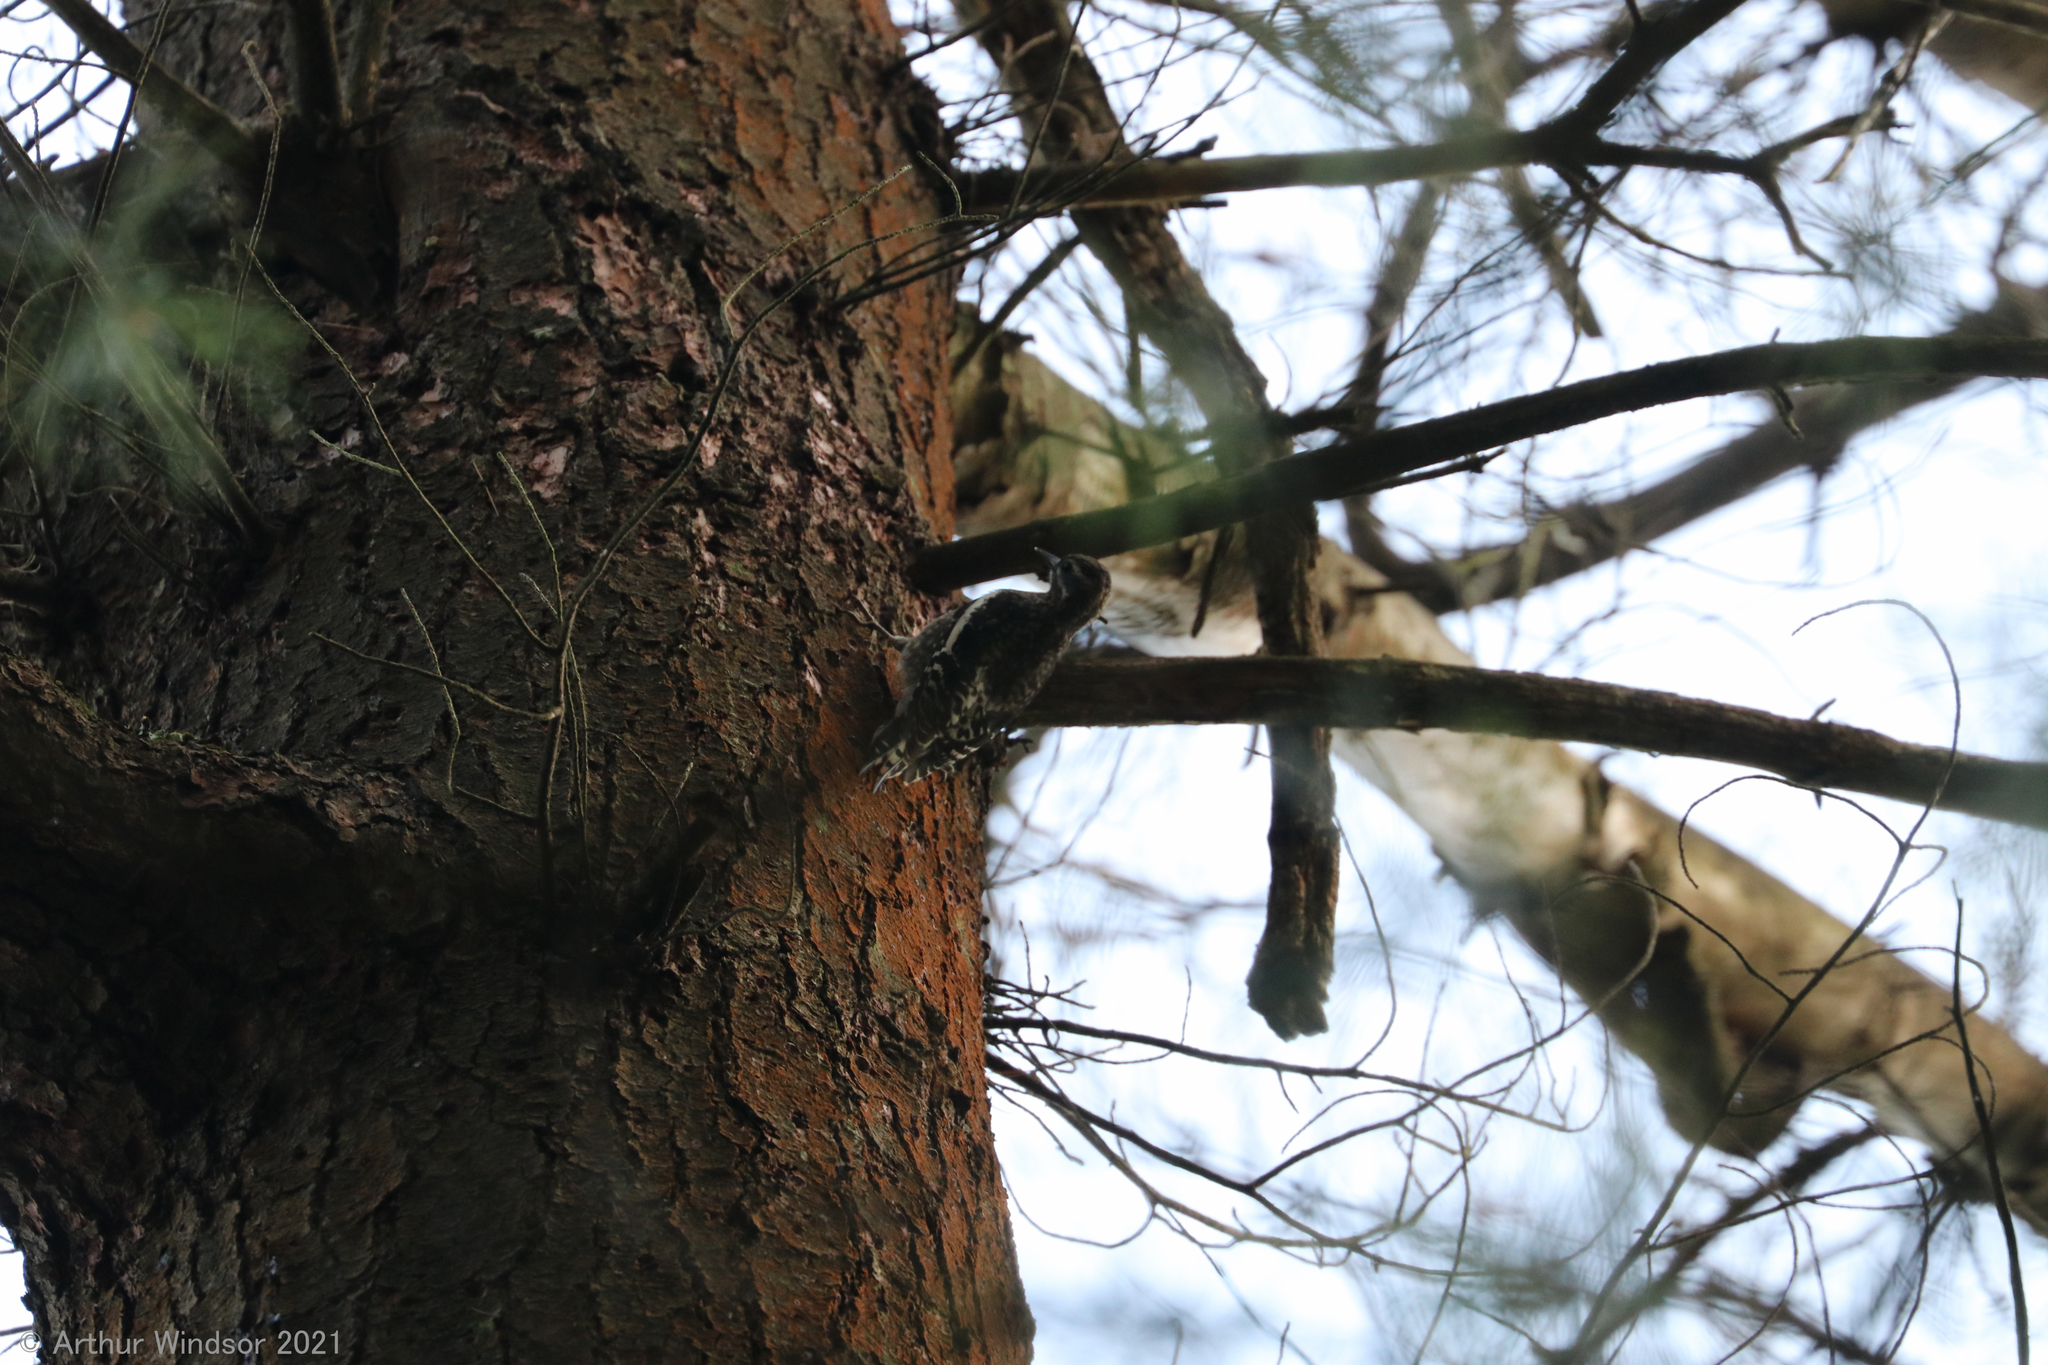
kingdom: Animalia
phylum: Chordata
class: Aves
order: Piciformes
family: Picidae
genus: Sphyrapicus
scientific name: Sphyrapicus varius
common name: Yellow-bellied sapsucker
